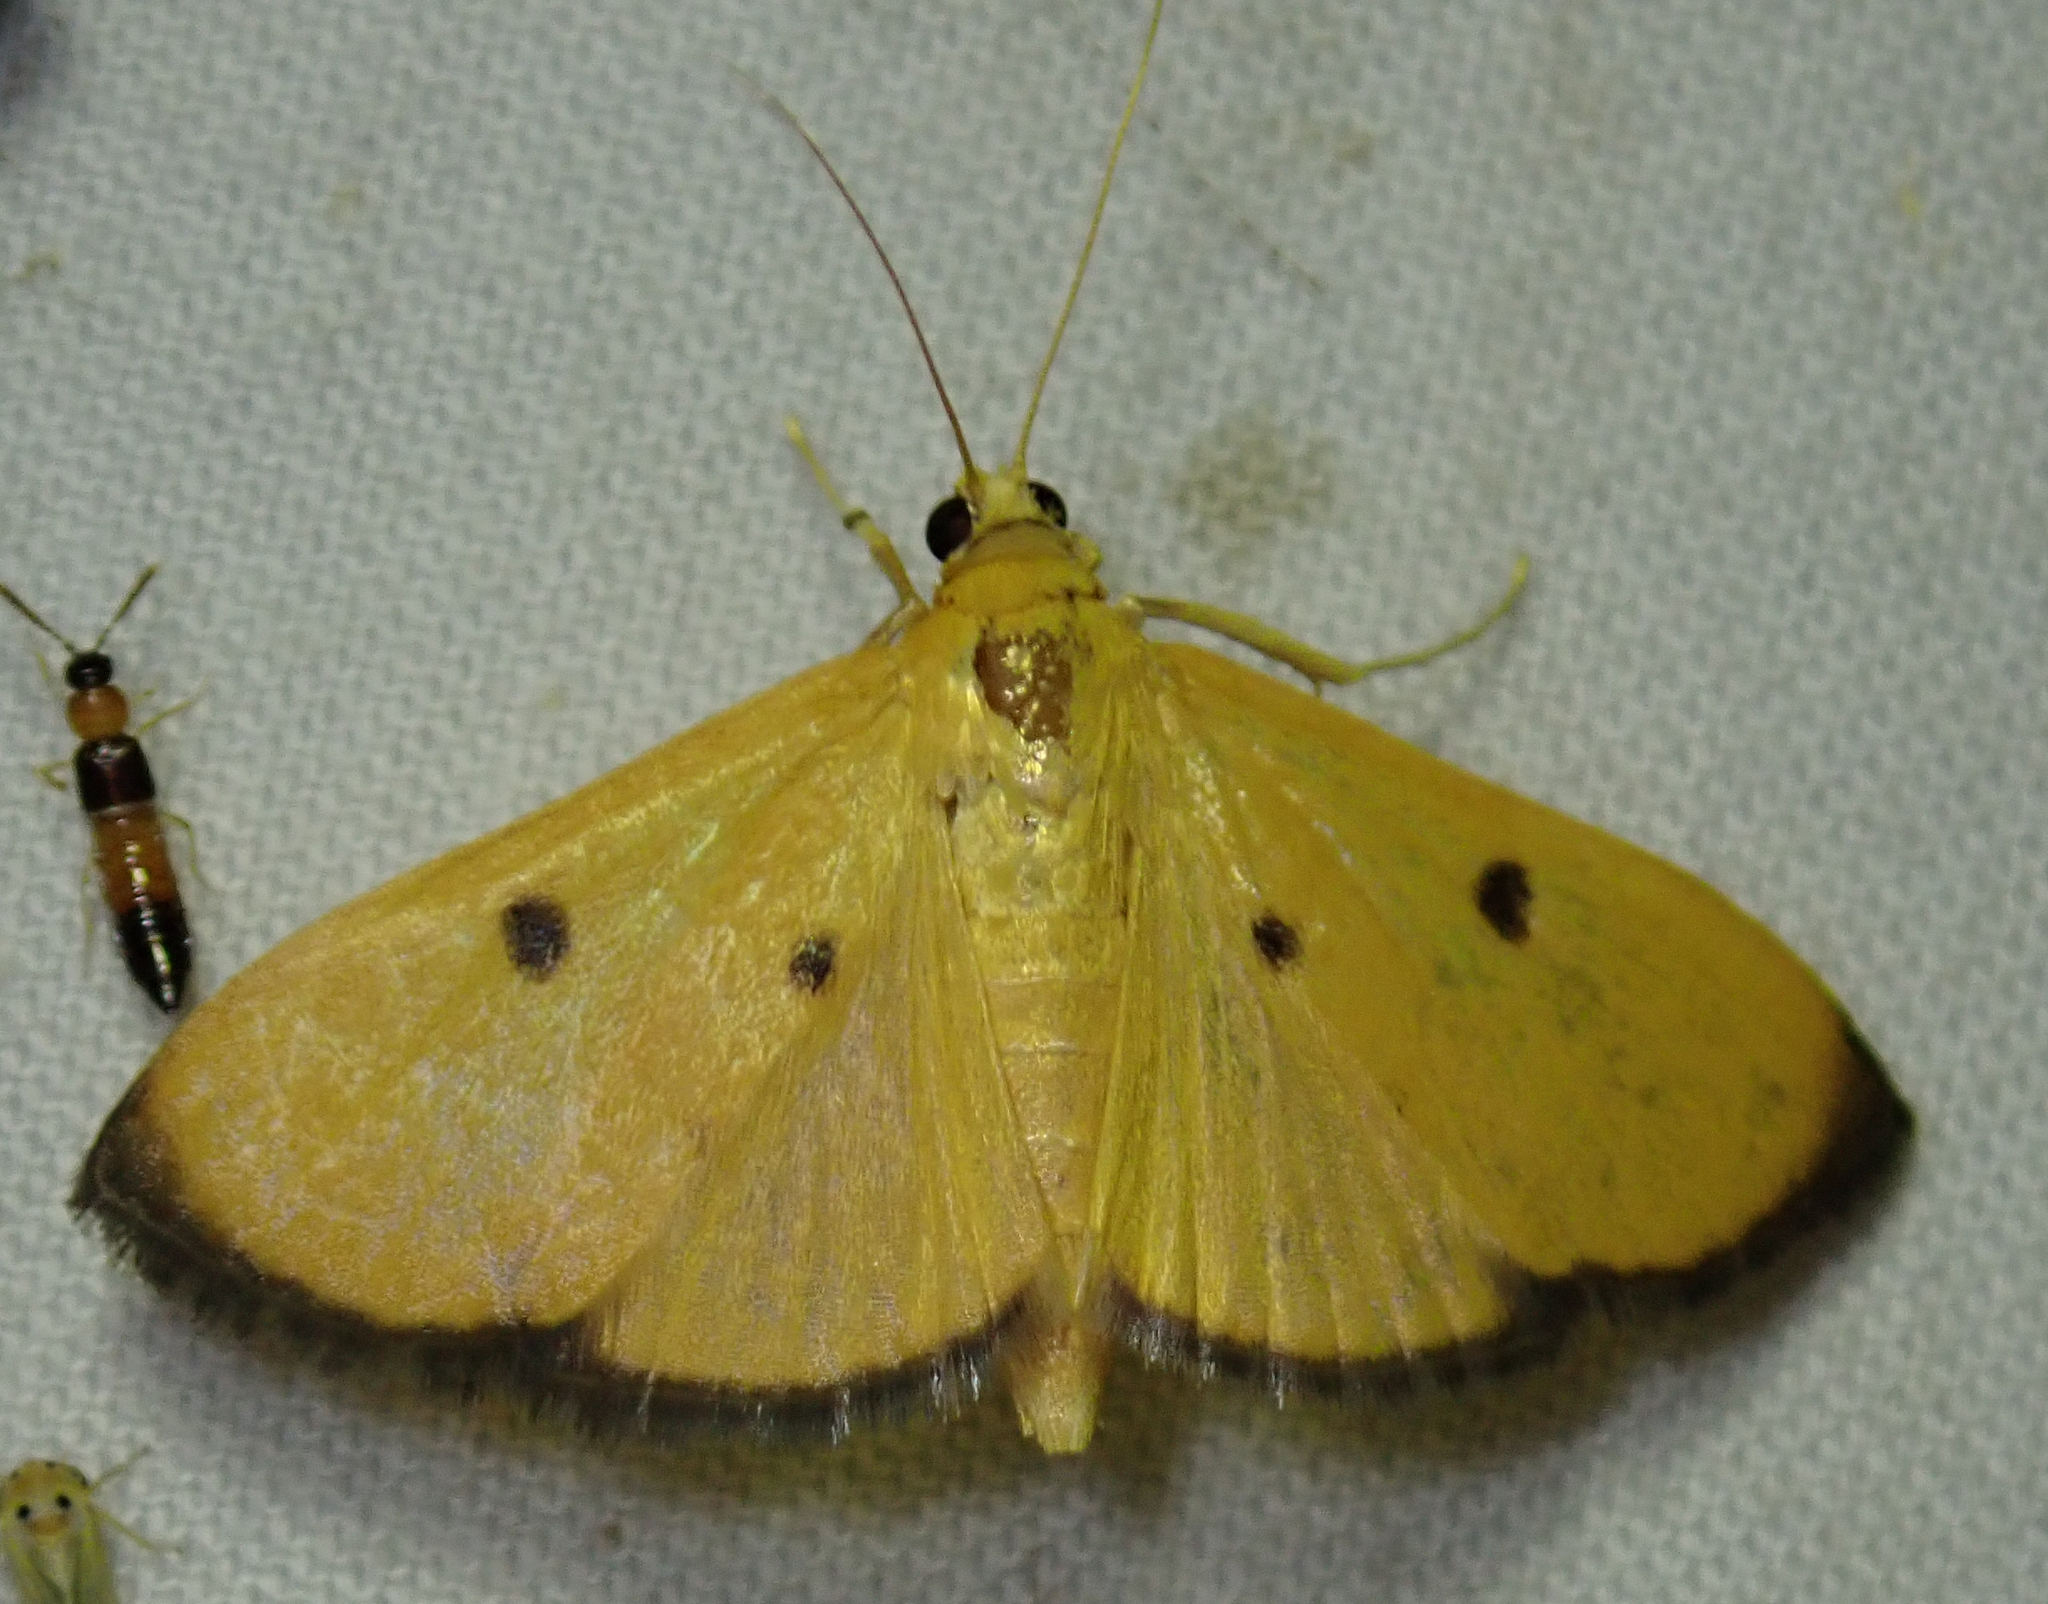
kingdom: Animalia
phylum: Arthropoda
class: Insecta
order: Lepidoptera
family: Crambidae
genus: Phostria
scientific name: Phostria bistigmalis
